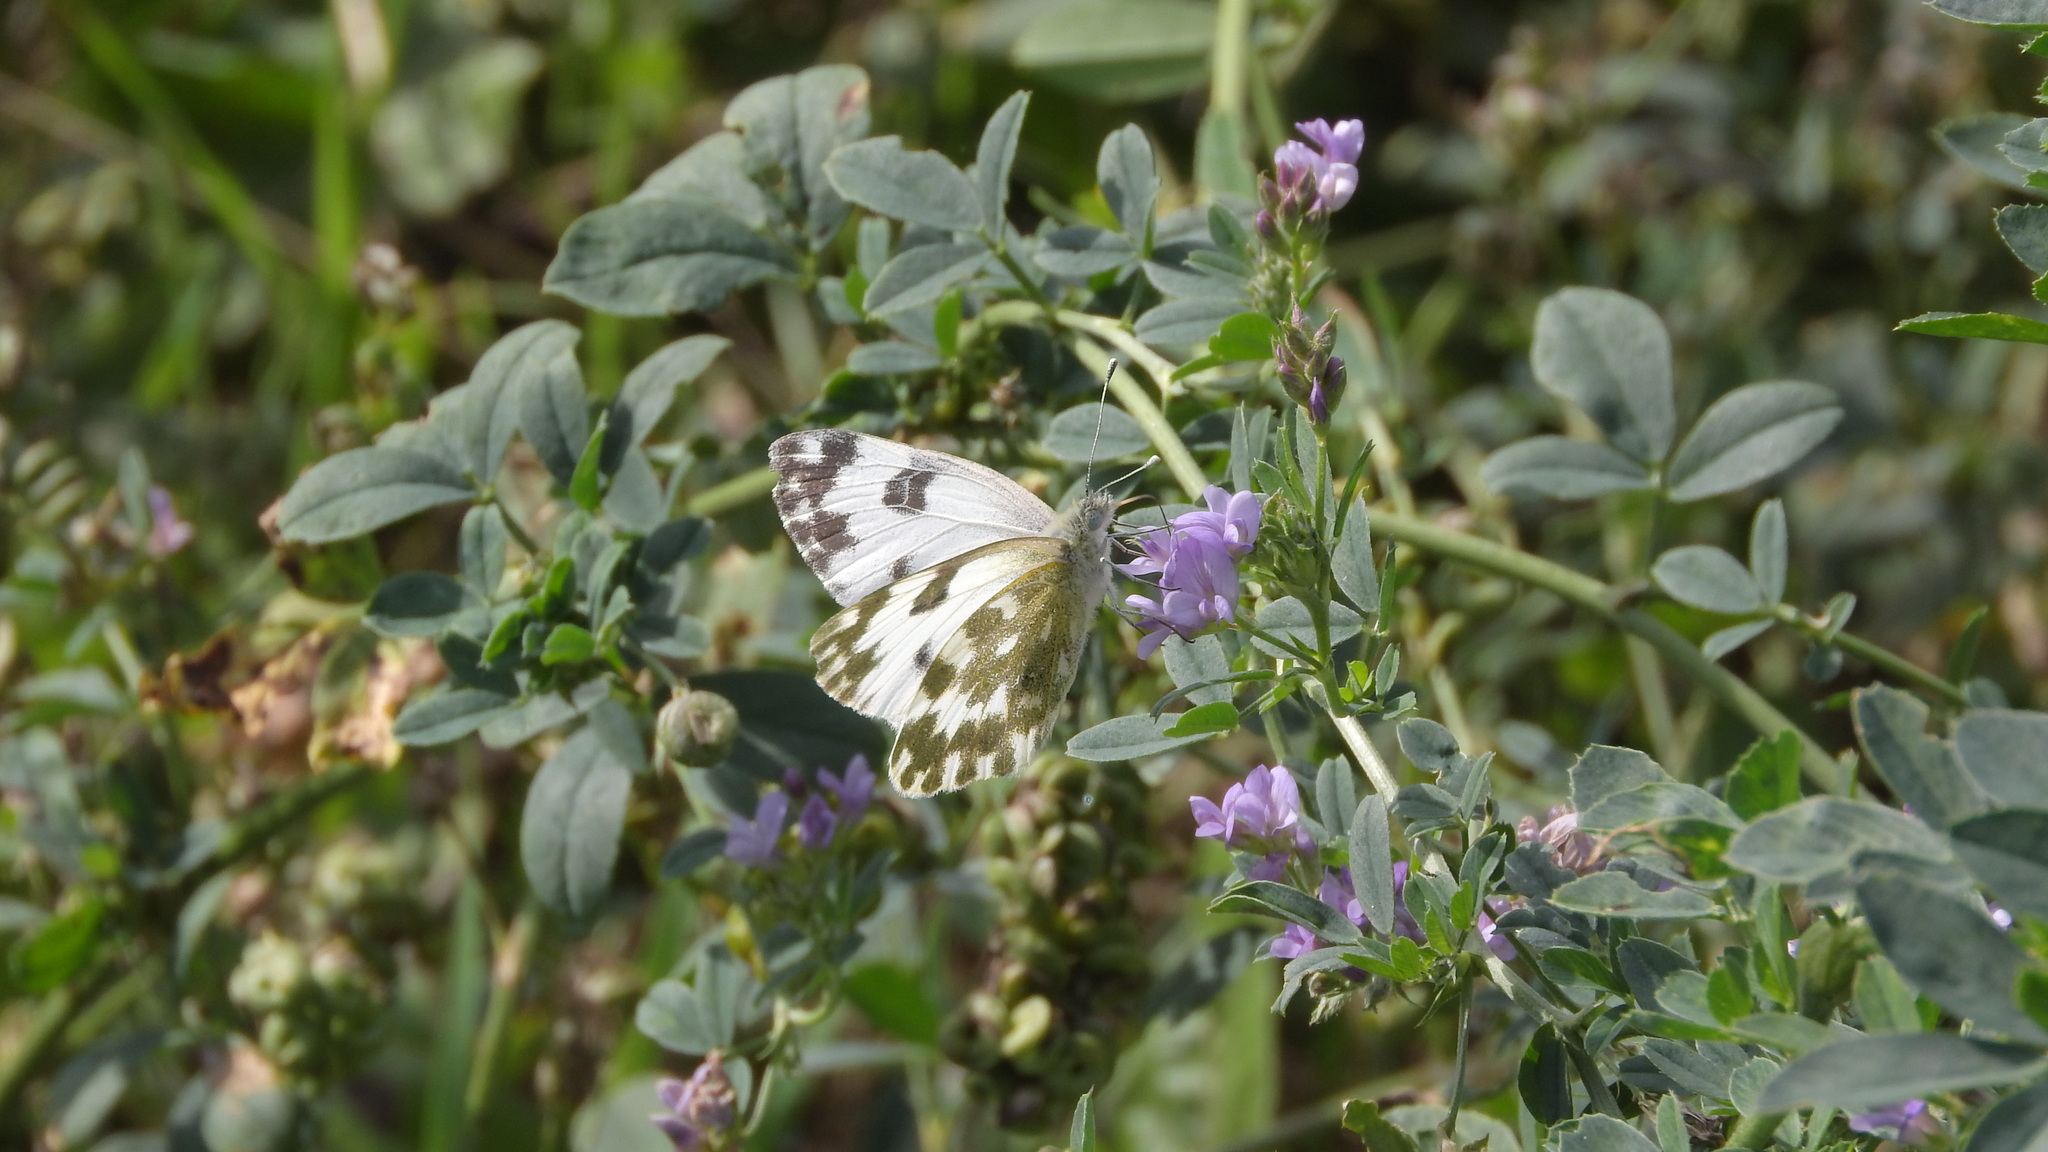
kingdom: Animalia
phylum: Arthropoda
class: Insecta
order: Lepidoptera
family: Pieridae
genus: Pontia
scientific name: Pontia edusa
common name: Eastern bath white
